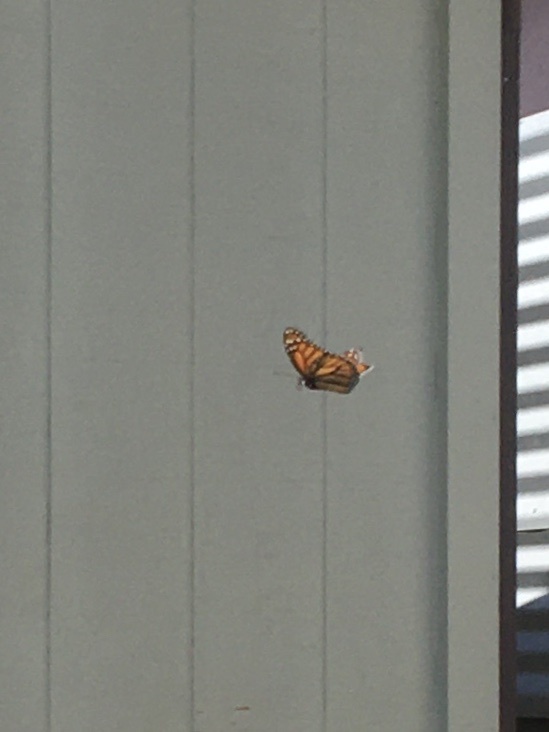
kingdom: Animalia
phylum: Arthropoda
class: Insecta
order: Lepidoptera
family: Nymphalidae
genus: Danaus
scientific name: Danaus plexippus
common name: Monarch
